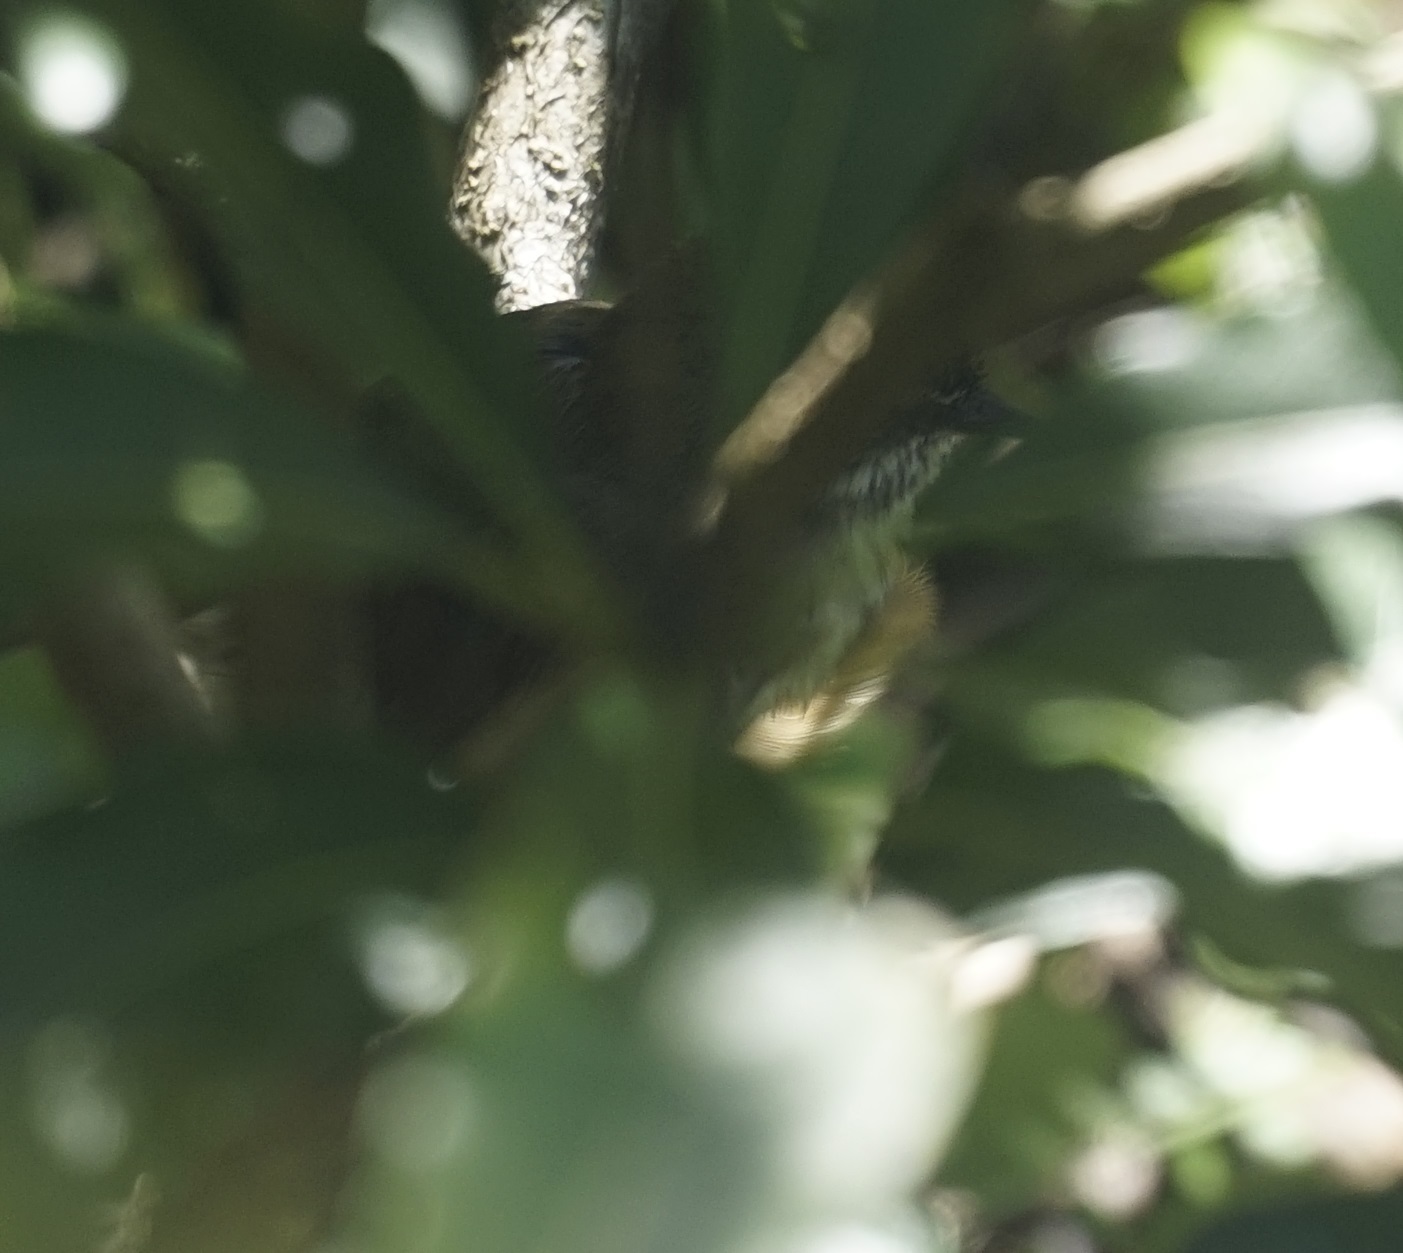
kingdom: Animalia
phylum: Chordata
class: Aves
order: Passeriformes
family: Acanthizidae
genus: Sericornis
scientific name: Sericornis frontalis
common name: White-browed scrubwren
